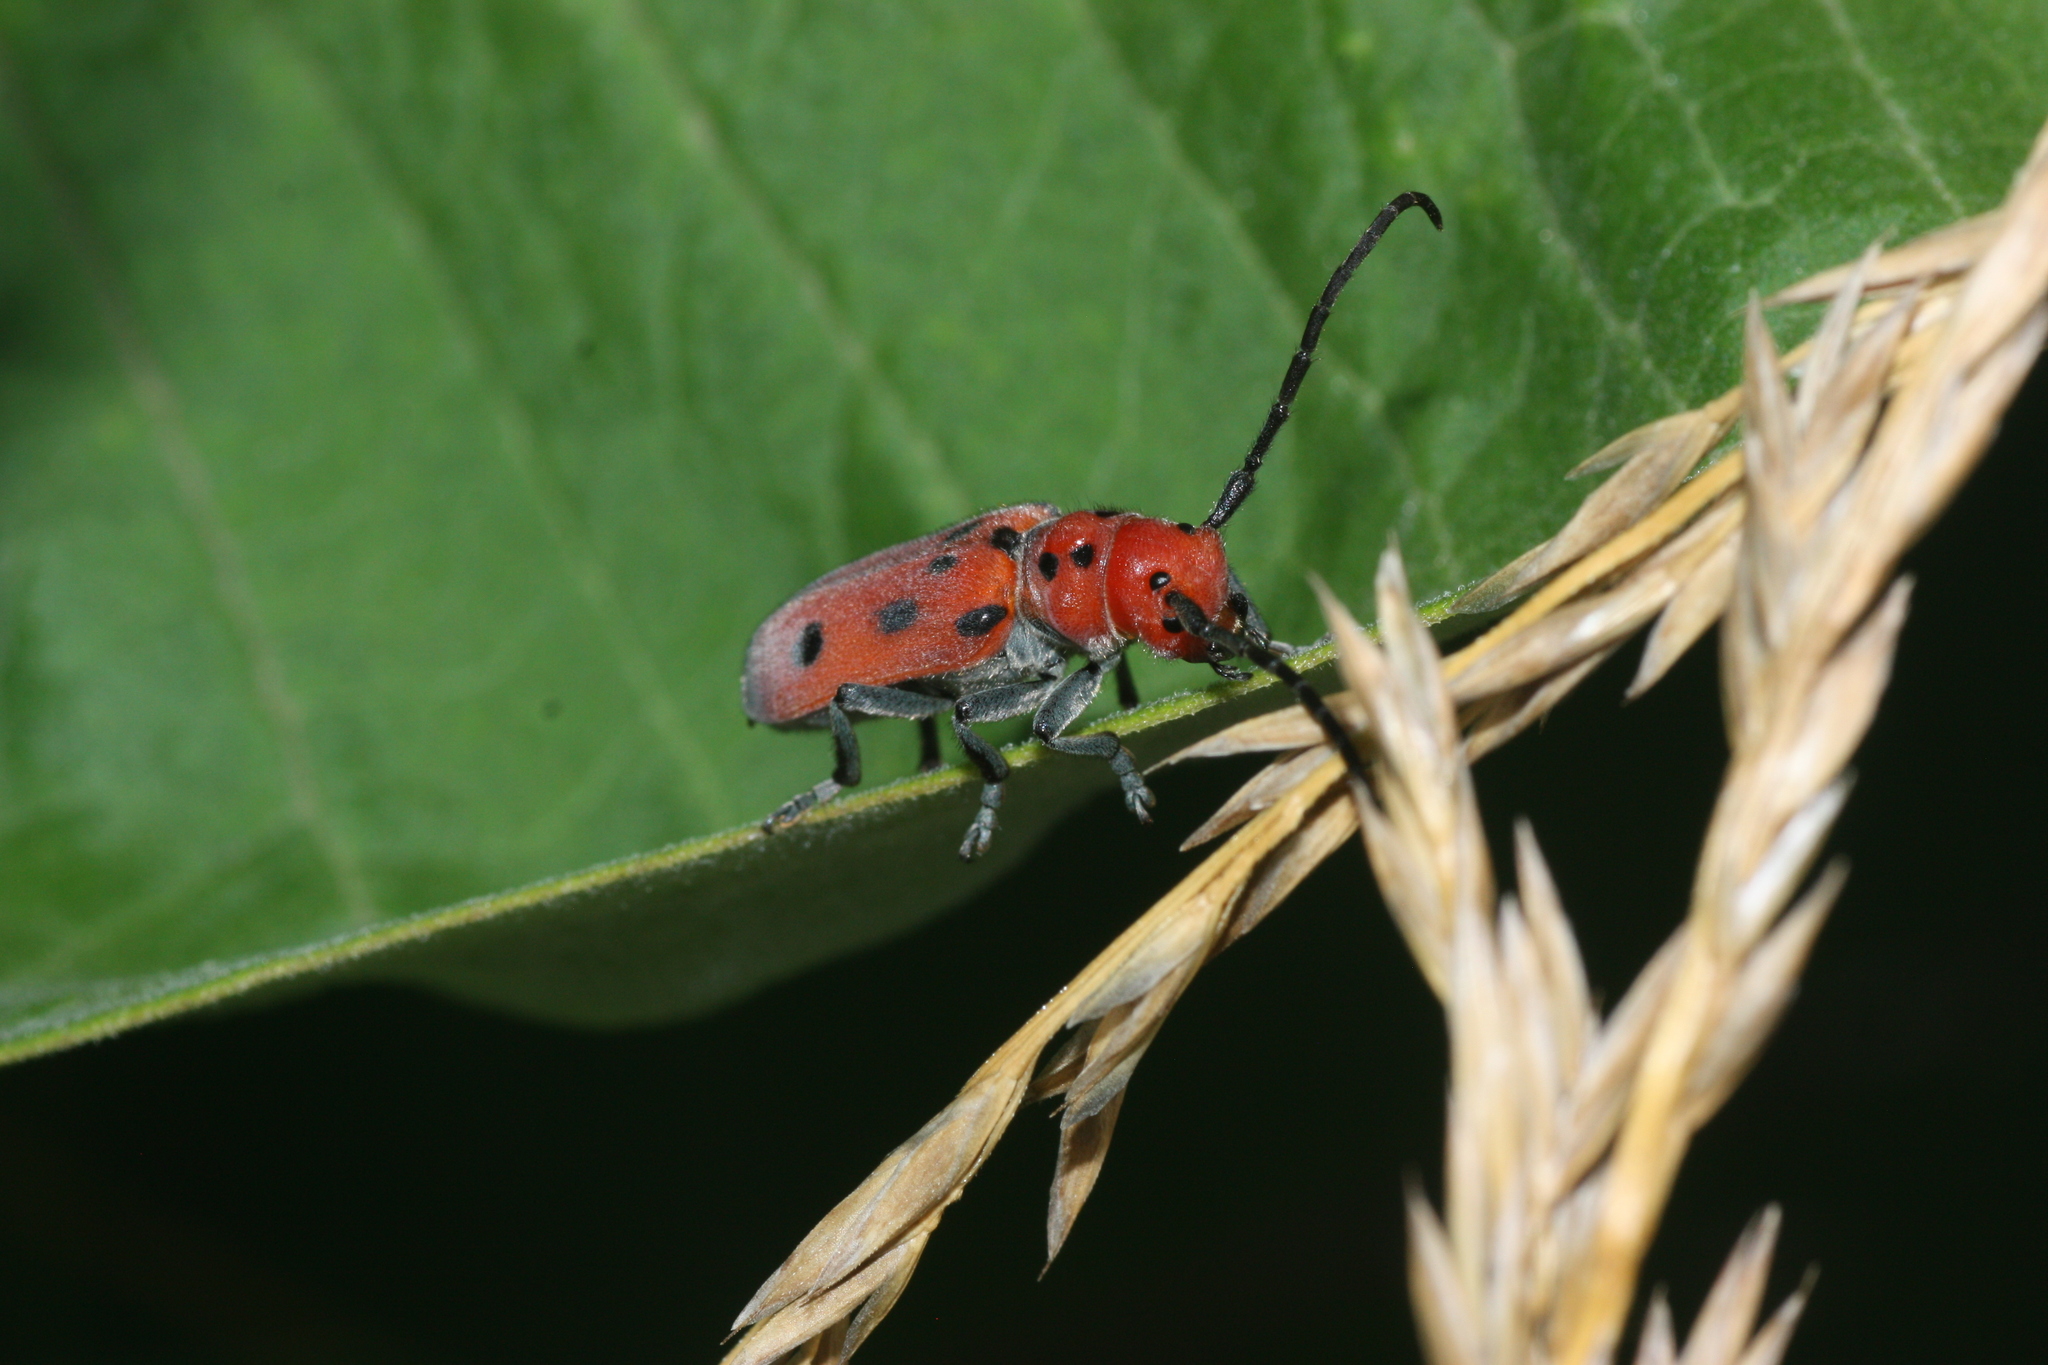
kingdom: Animalia
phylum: Arthropoda
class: Insecta
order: Coleoptera
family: Cerambycidae
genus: Tetraopes
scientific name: Tetraopes tetrophthalmus
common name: Red milkweed beetle
